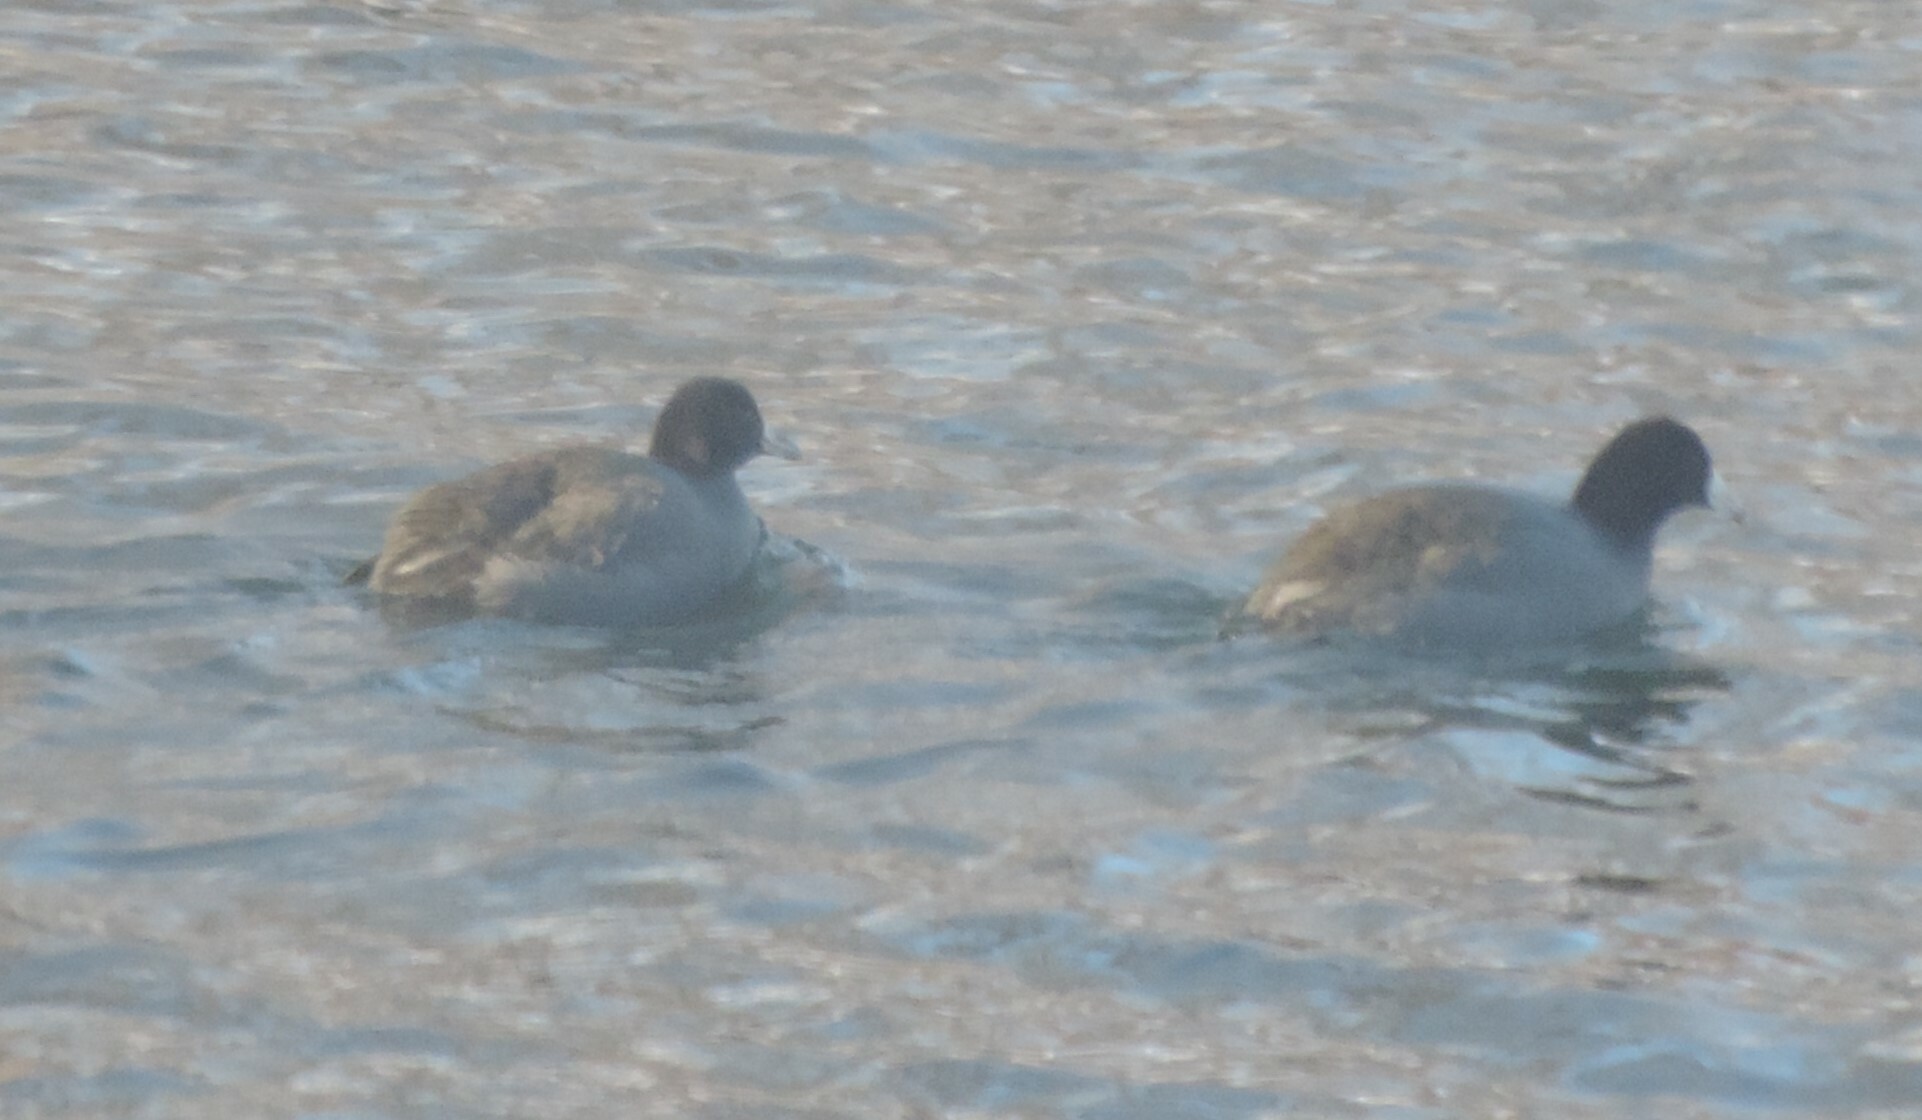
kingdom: Animalia
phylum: Chordata
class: Aves
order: Gruiformes
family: Rallidae
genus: Fulica
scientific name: Fulica americana
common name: American coot
